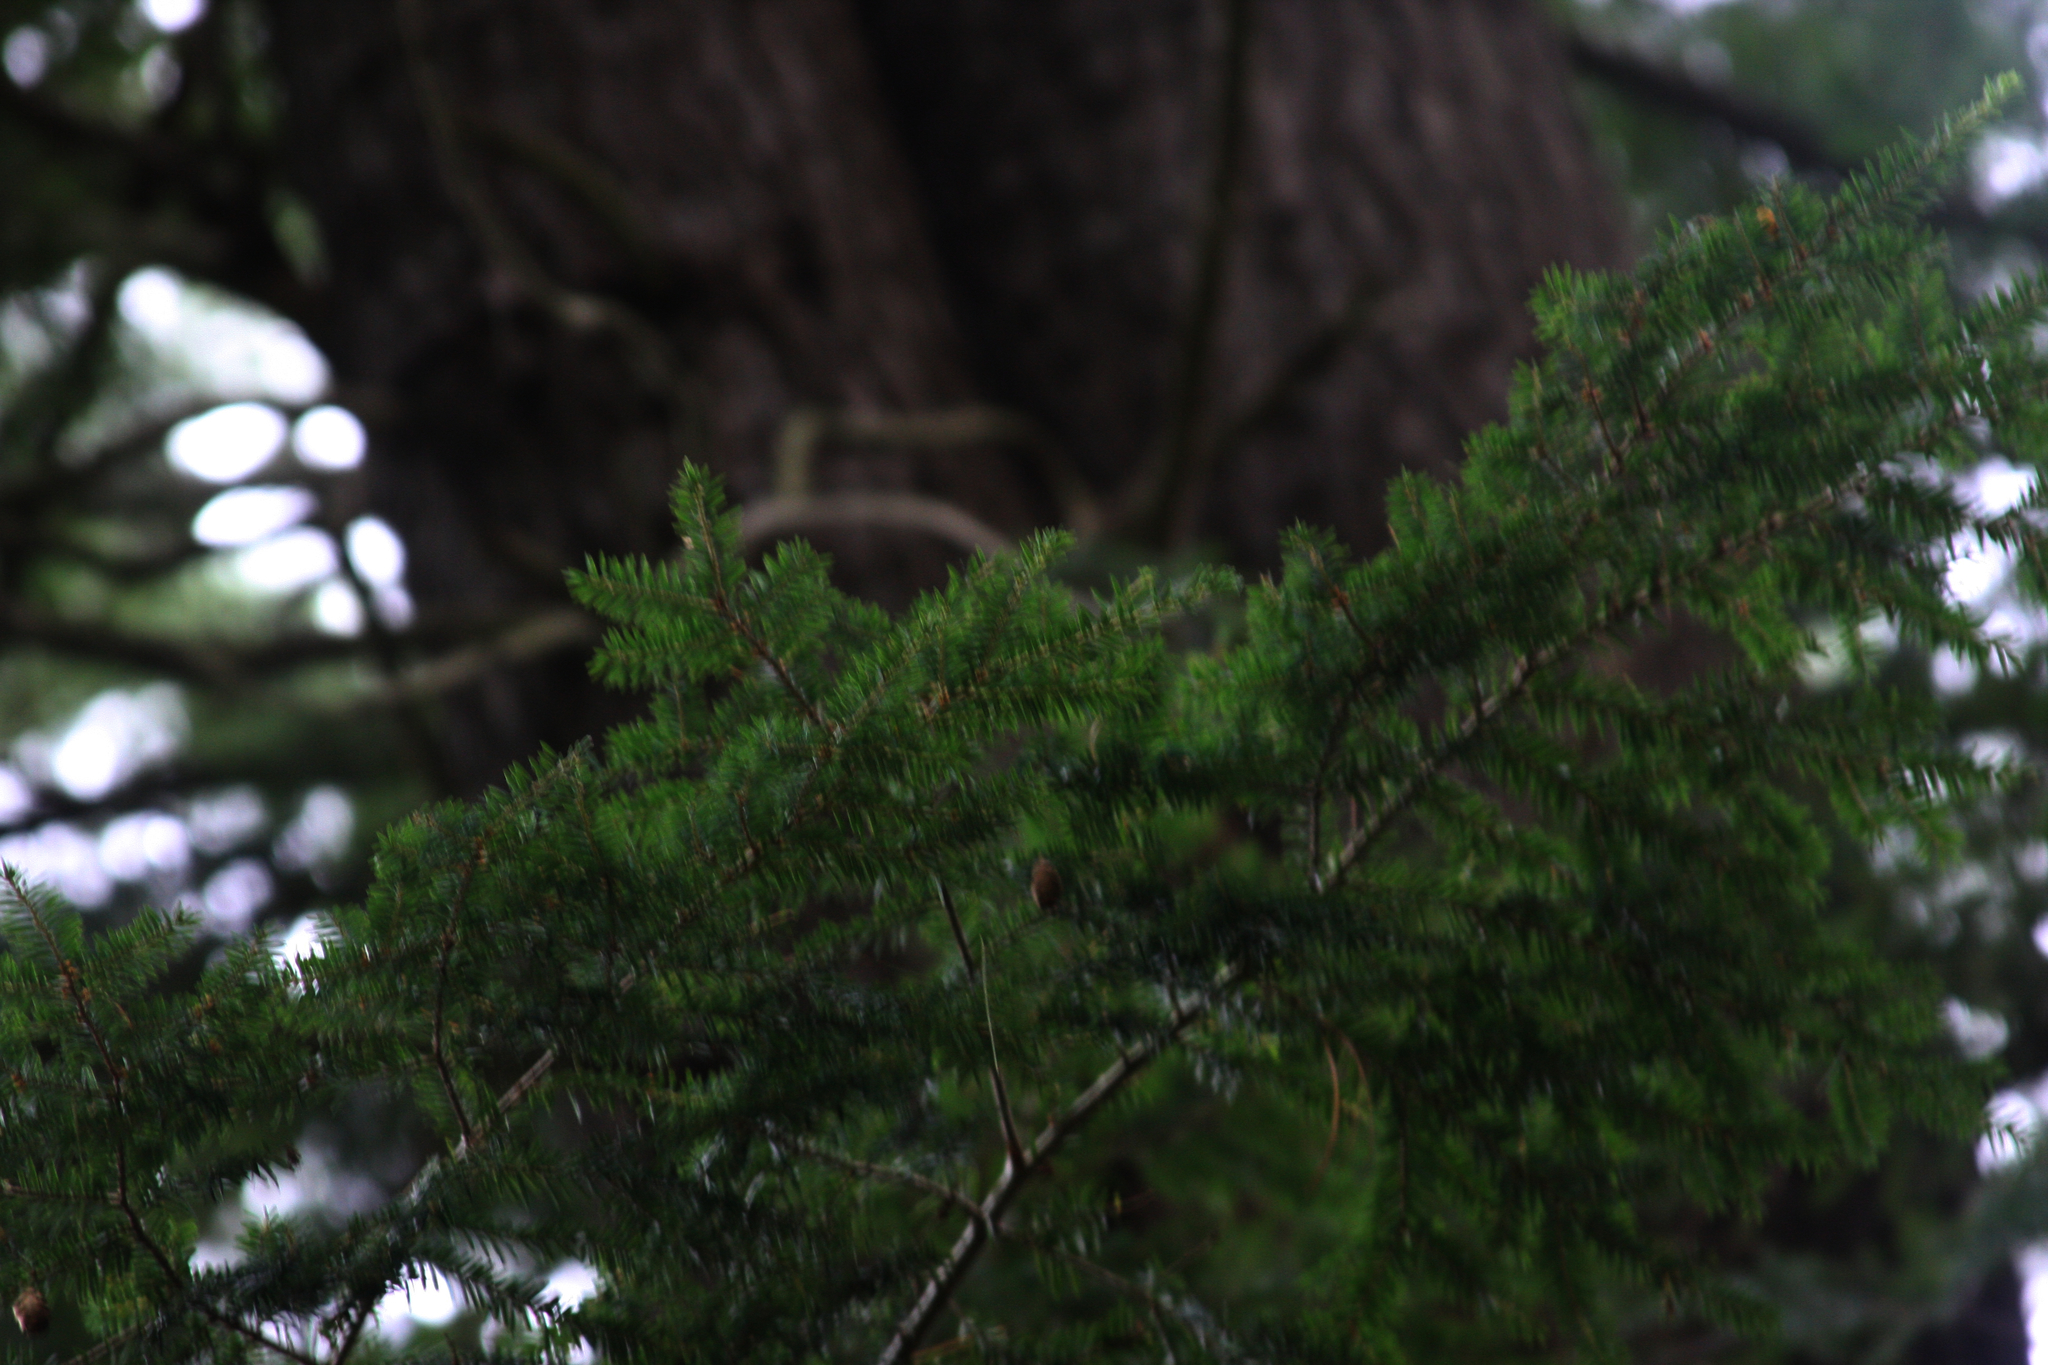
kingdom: Plantae
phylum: Tracheophyta
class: Pinopsida
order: Pinales
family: Pinaceae
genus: Tsuga
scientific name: Tsuga canadensis
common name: Eastern hemlock
